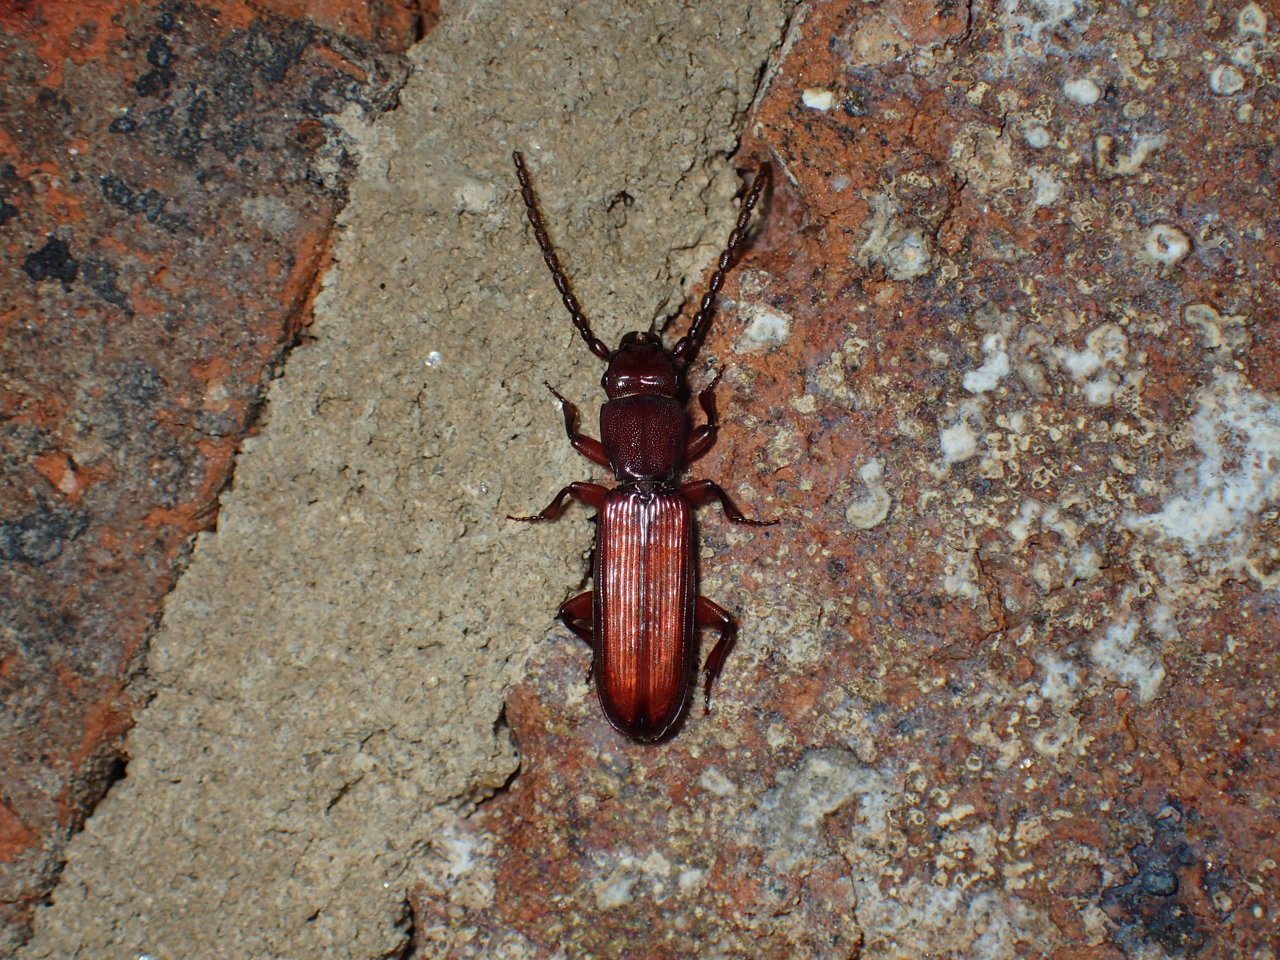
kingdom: Animalia
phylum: Arthropoda
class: Insecta
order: Coleoptera
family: Passandridae
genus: Catogenus
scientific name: Catogenus rufus
